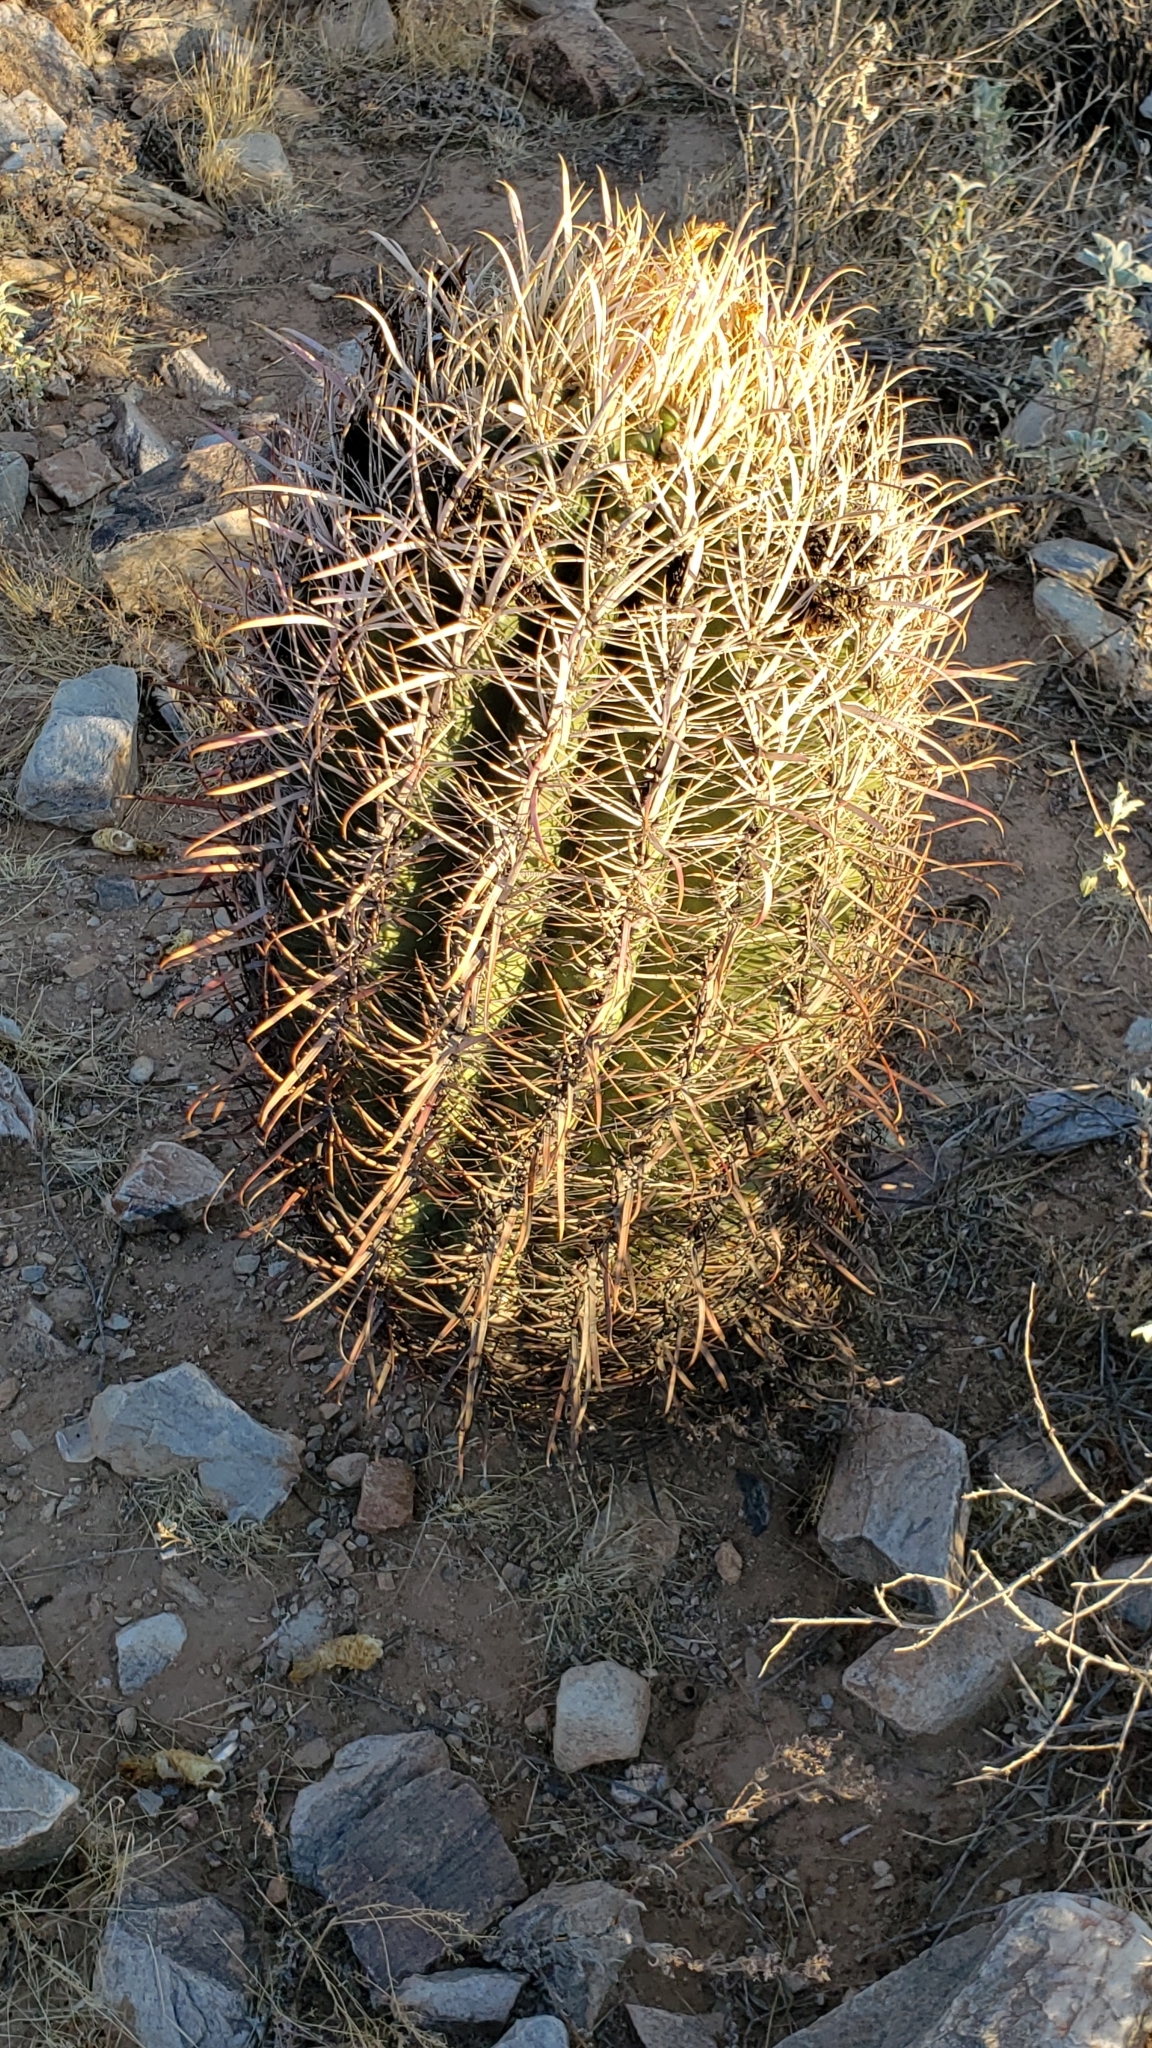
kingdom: Plantae
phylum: Tracheophyta
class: Magnoliopsida
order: Caryophyllales
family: Cactaceae
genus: Ferocactus
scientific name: Ferocactus cylindraceus
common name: California barrel cactus
